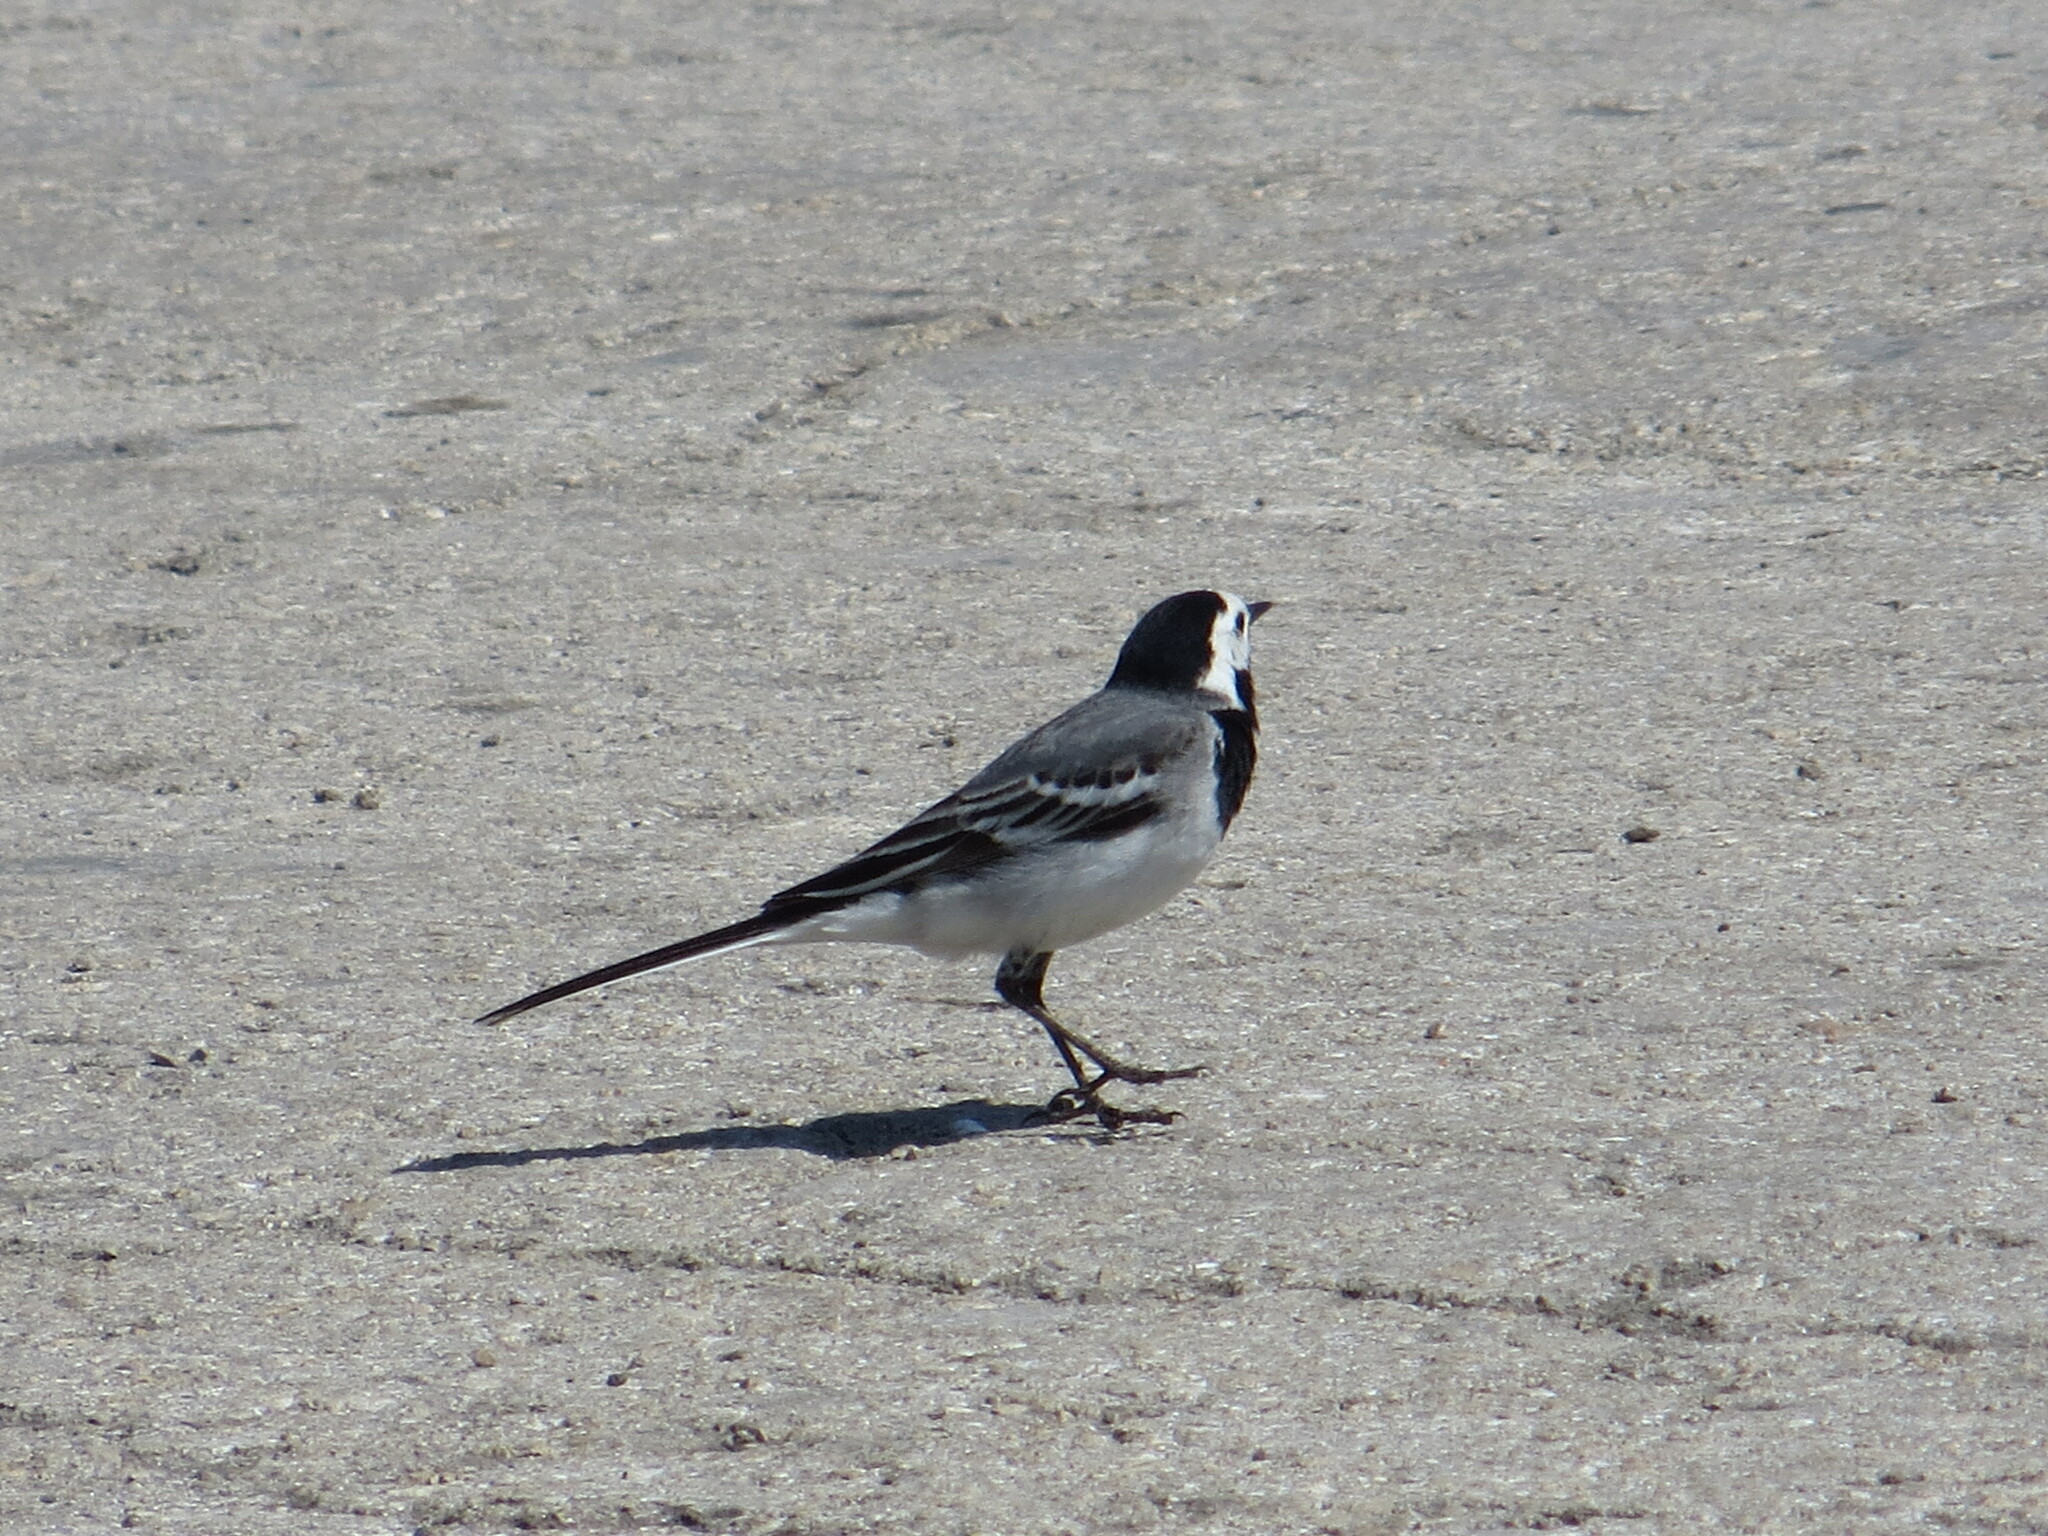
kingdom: Animalia
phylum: Chordata
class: Aves
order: Passeriformes
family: Motacillidae
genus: Motacilla
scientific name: Motacilla alba
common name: White wagtail
